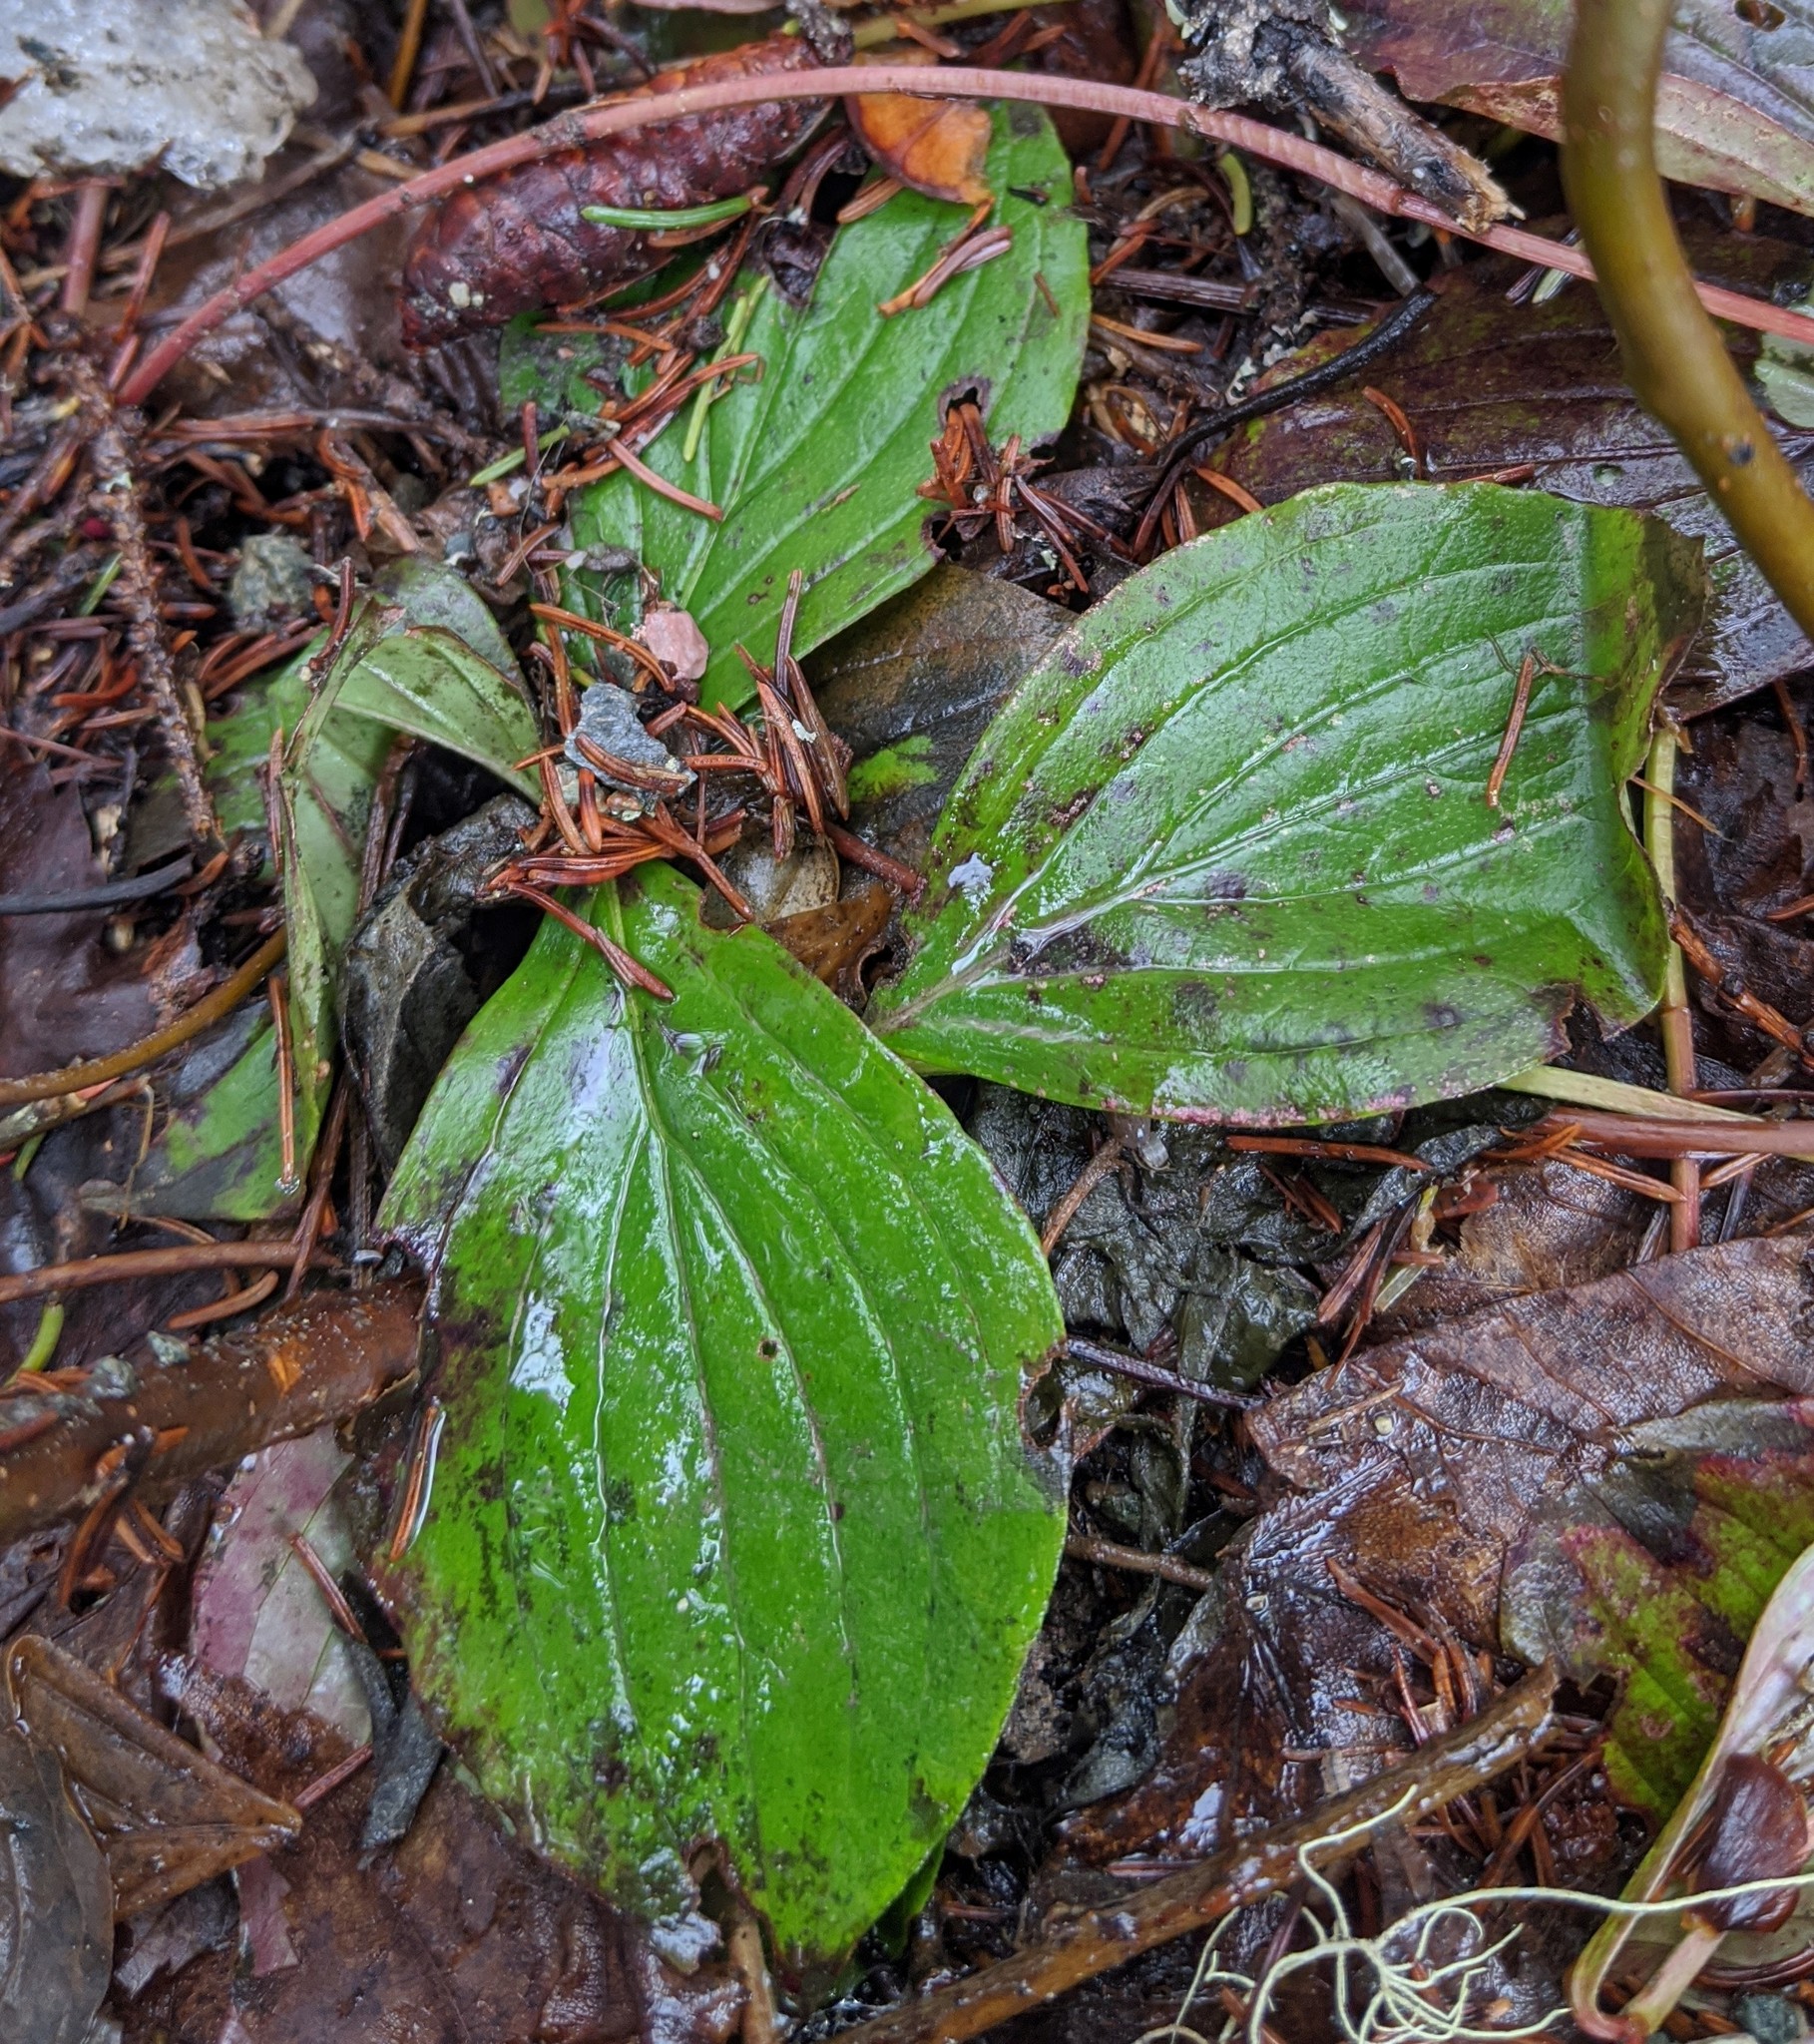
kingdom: Plantae
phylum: Tracheophyta
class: Magnoliopsida
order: Cornales
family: Cornaceae
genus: Cornus
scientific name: Cornus canadensis
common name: Creeping dogwood
